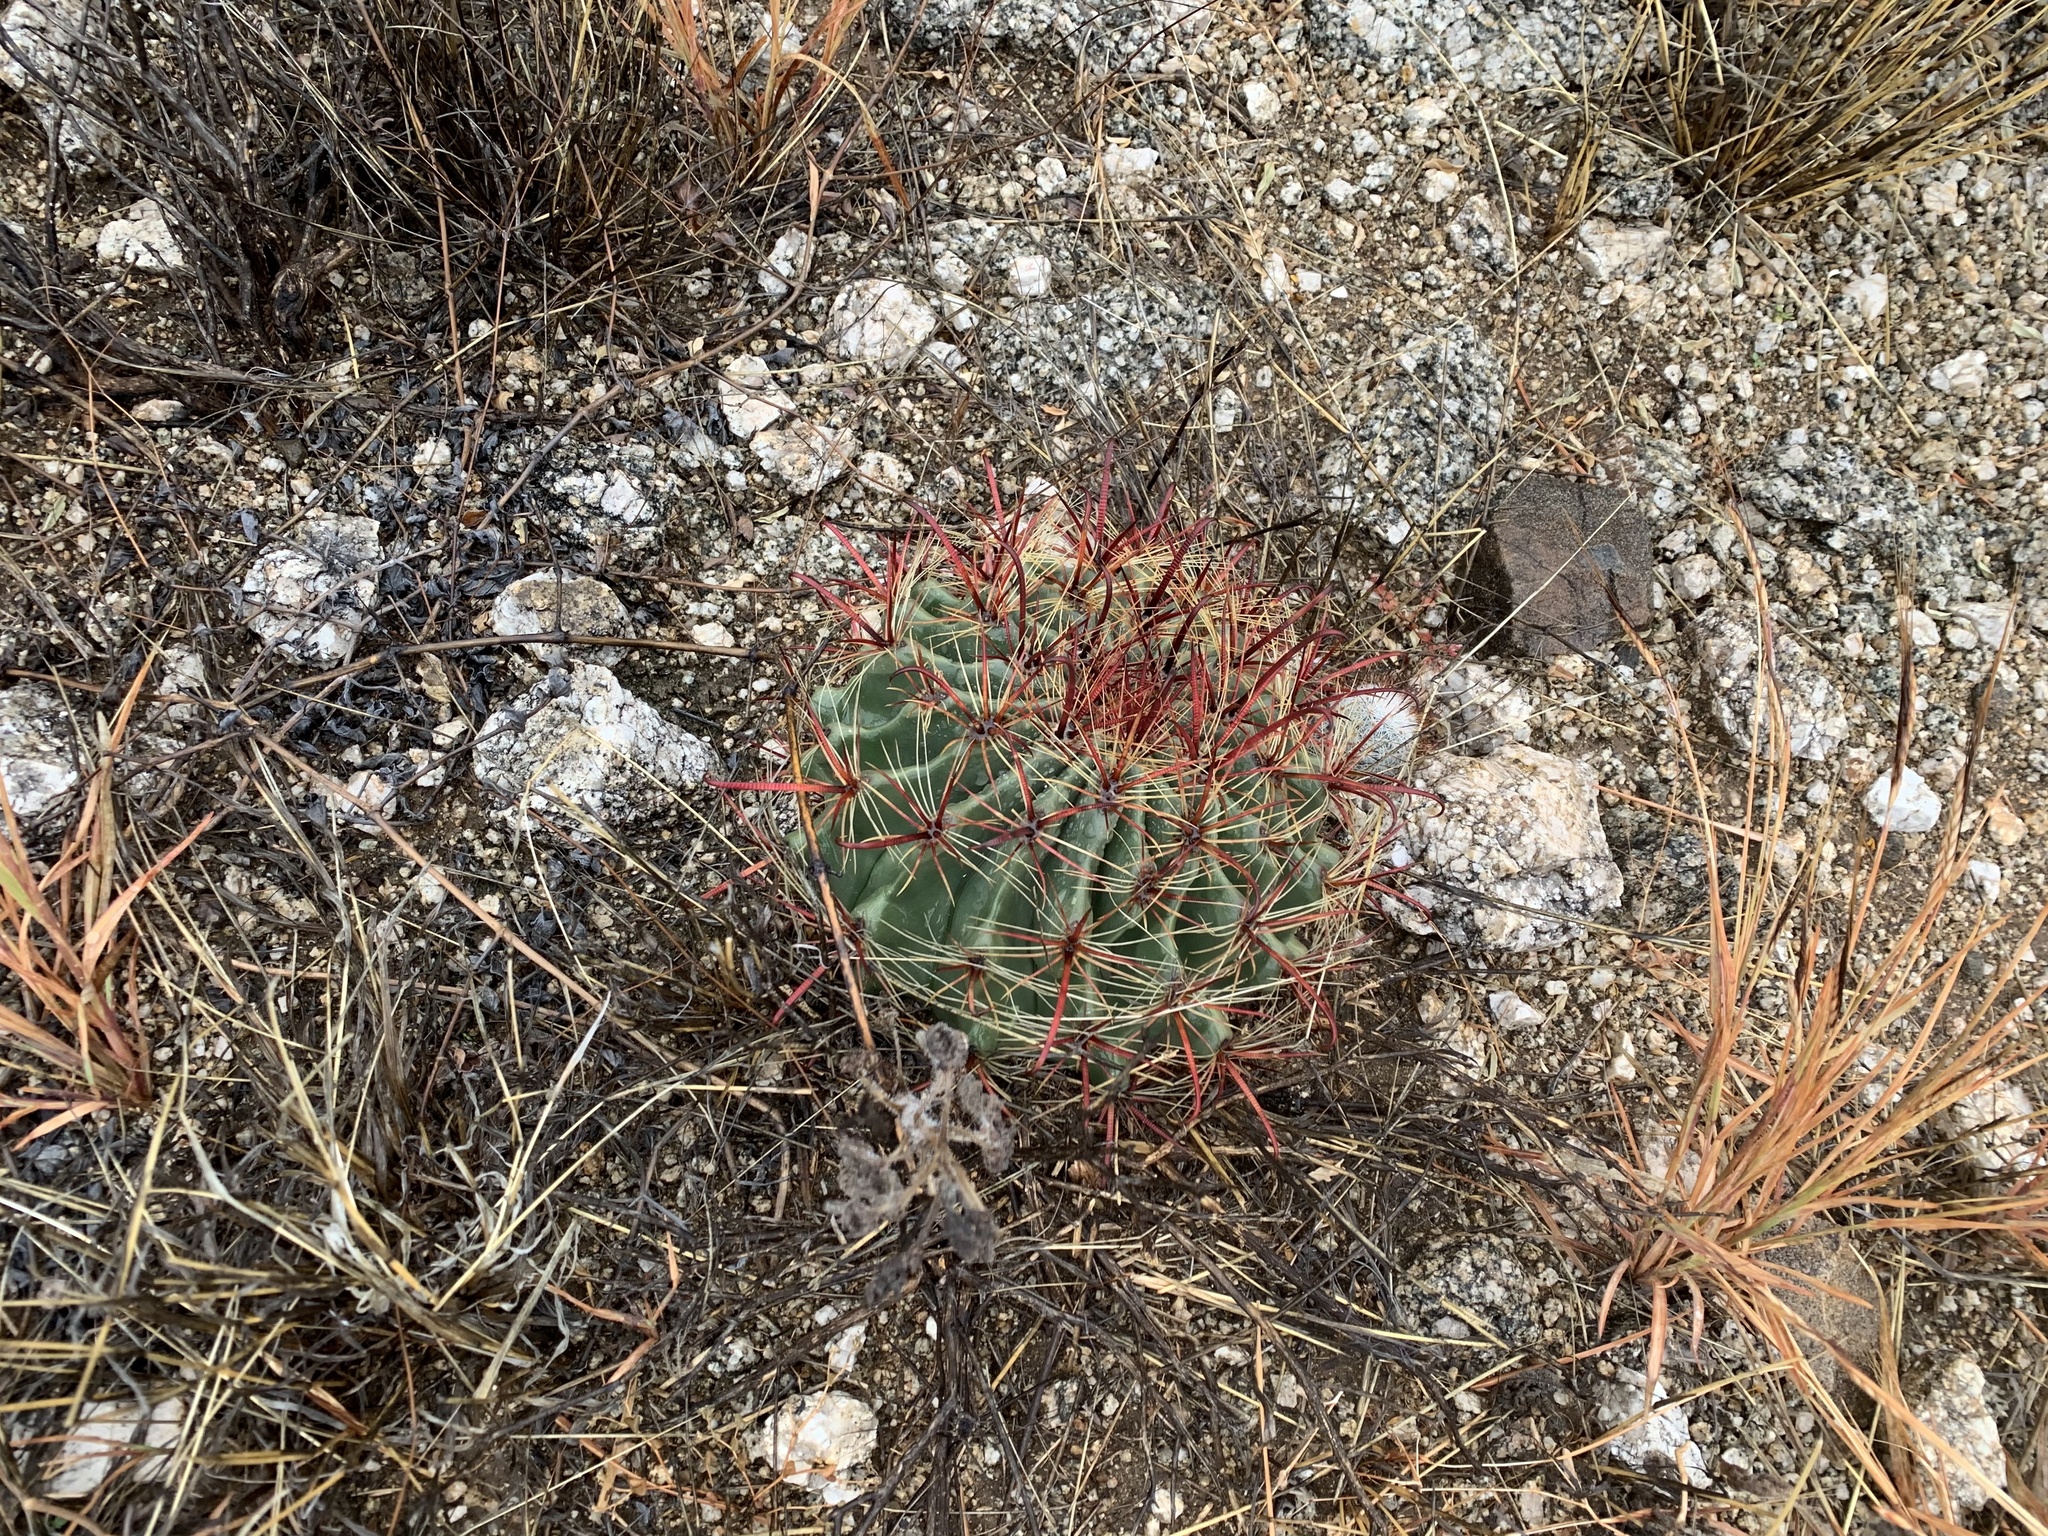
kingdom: Plantae
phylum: Tracheophyta
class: Magnoliopsida
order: Caryophyllales
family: Cactaceae
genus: Ferocactus
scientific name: Ferocactus wislizeni
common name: Candy barrel cactus
